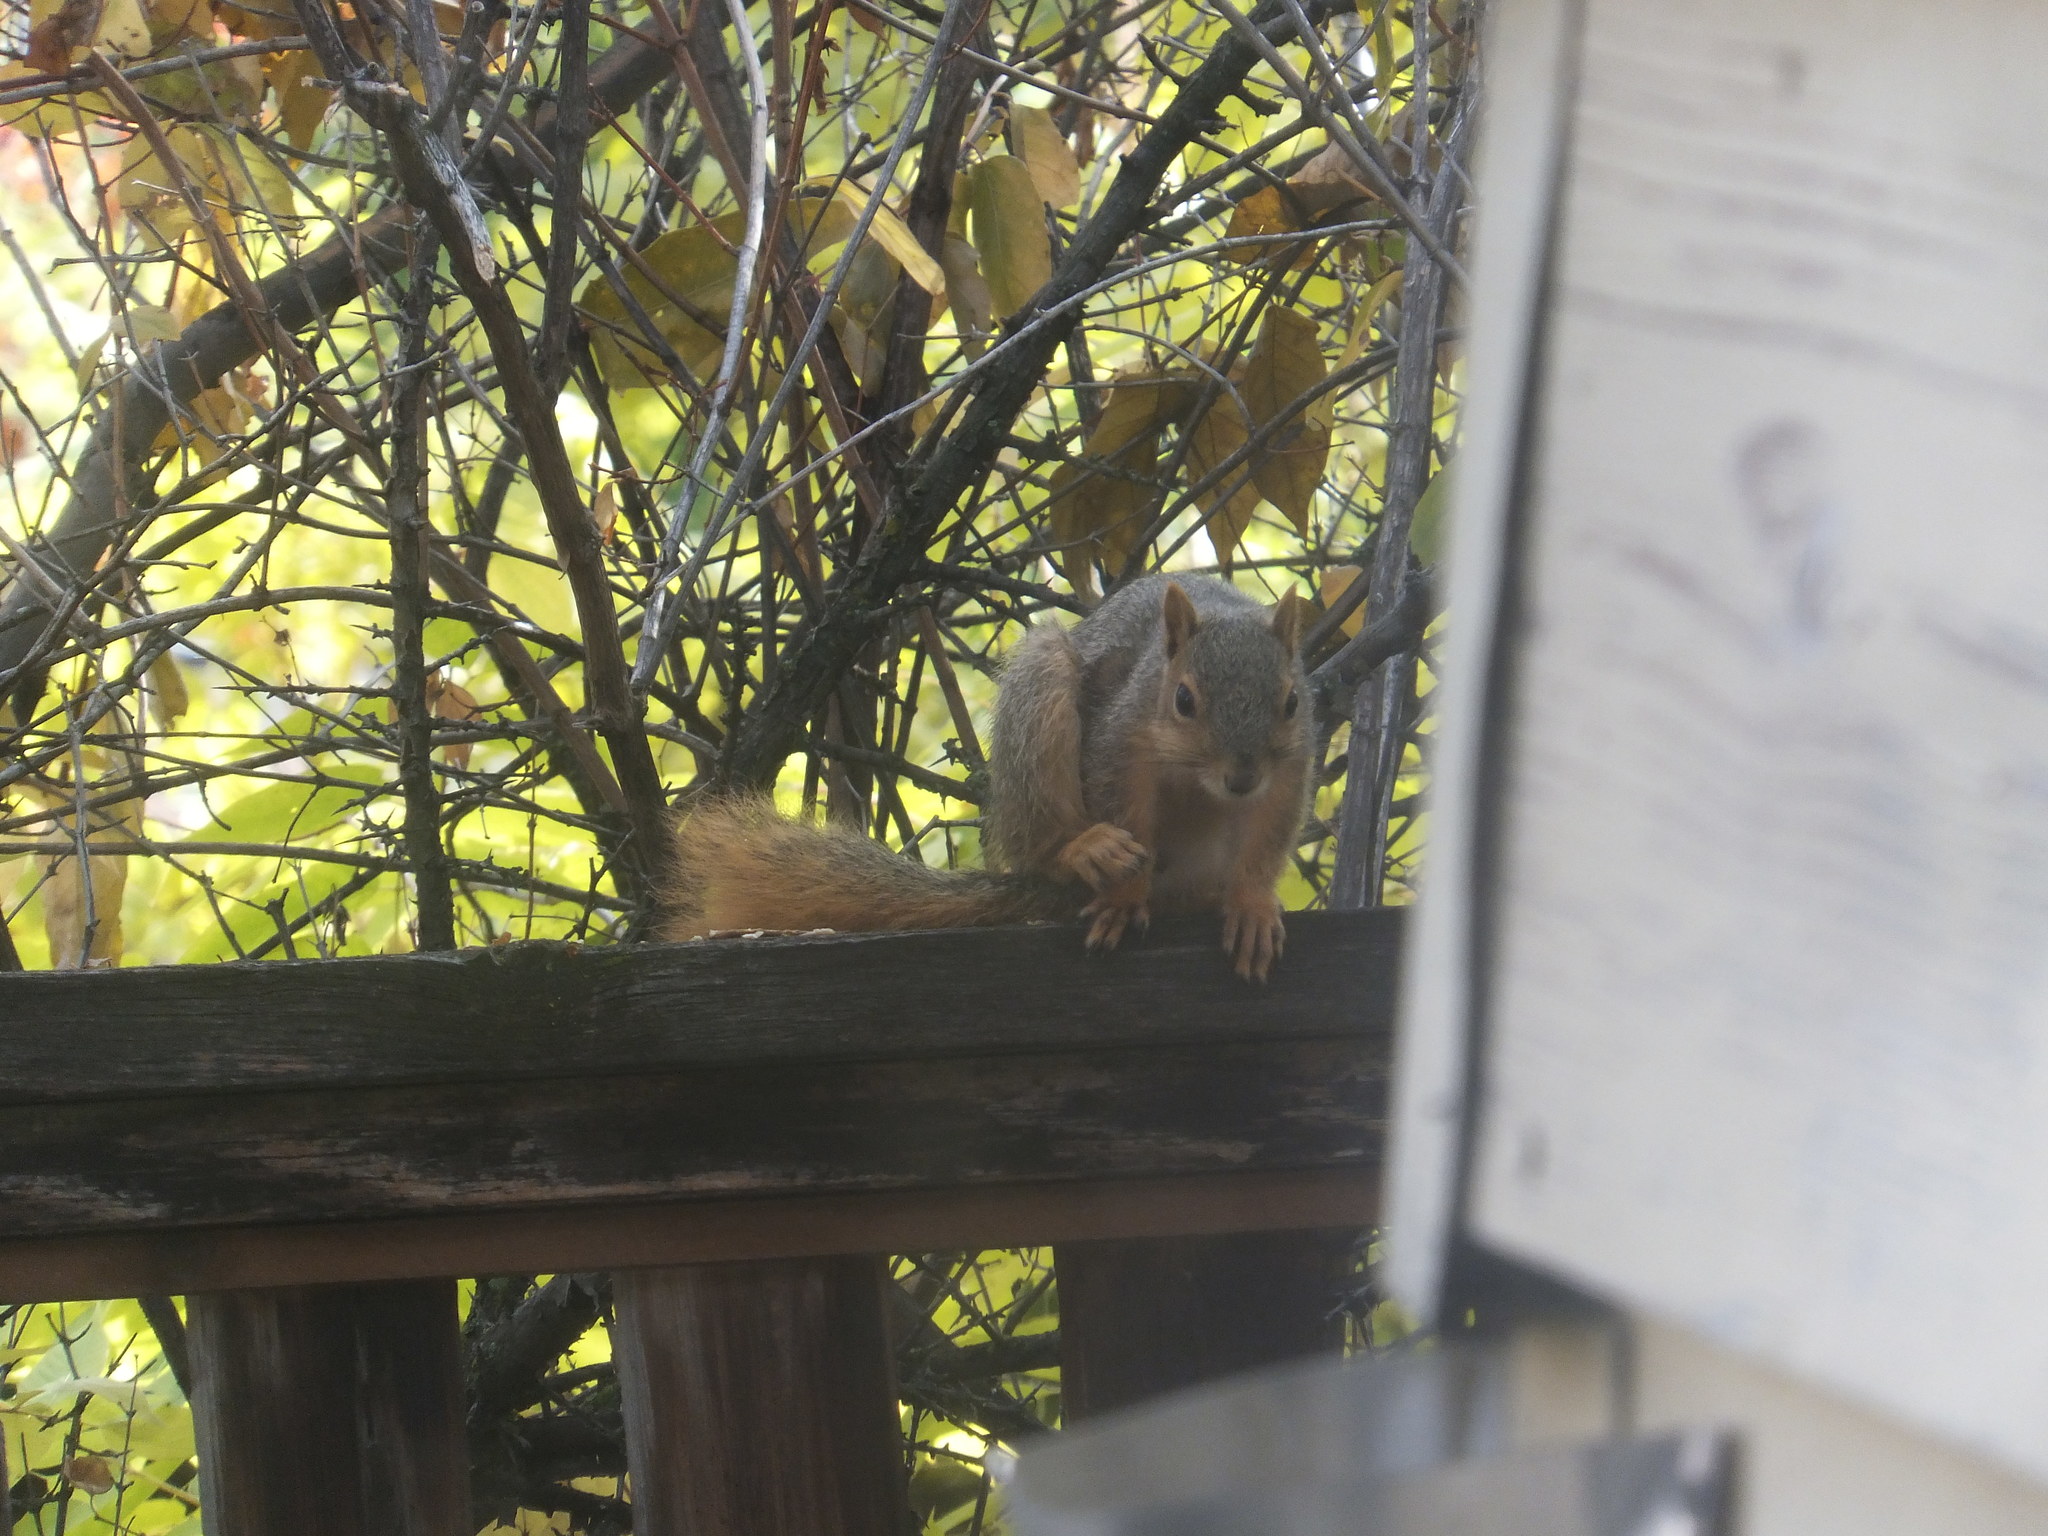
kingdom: Animalia
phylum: Chordata
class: Mammalia
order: Rodentia
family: Sciuridae
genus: Sciurus
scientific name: Sciurus niger
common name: Fox squirrel
